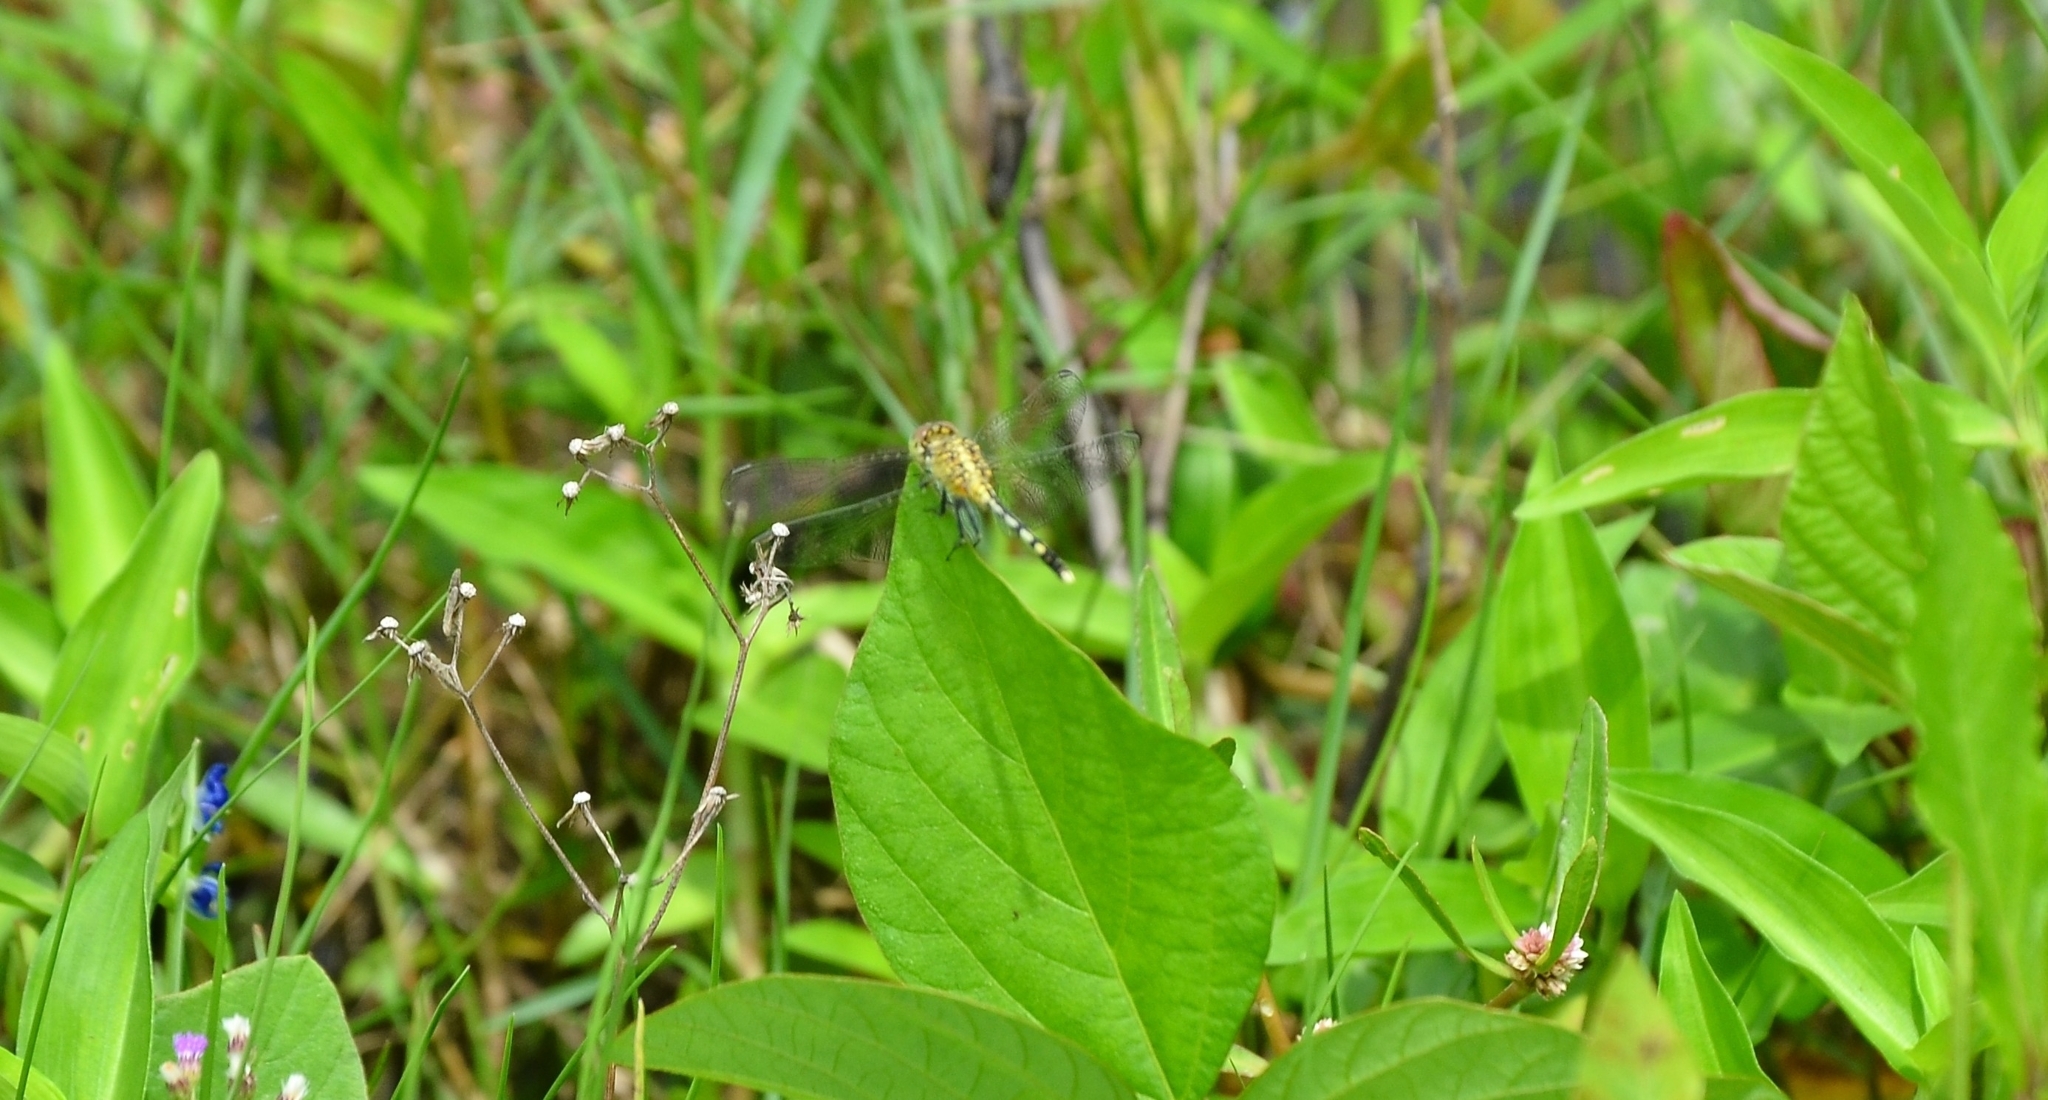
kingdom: Animalia
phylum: Arthropoda
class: Insecta
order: Odonata
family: Libellulidae
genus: Diplacodes
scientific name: Diplacodes trivialis
